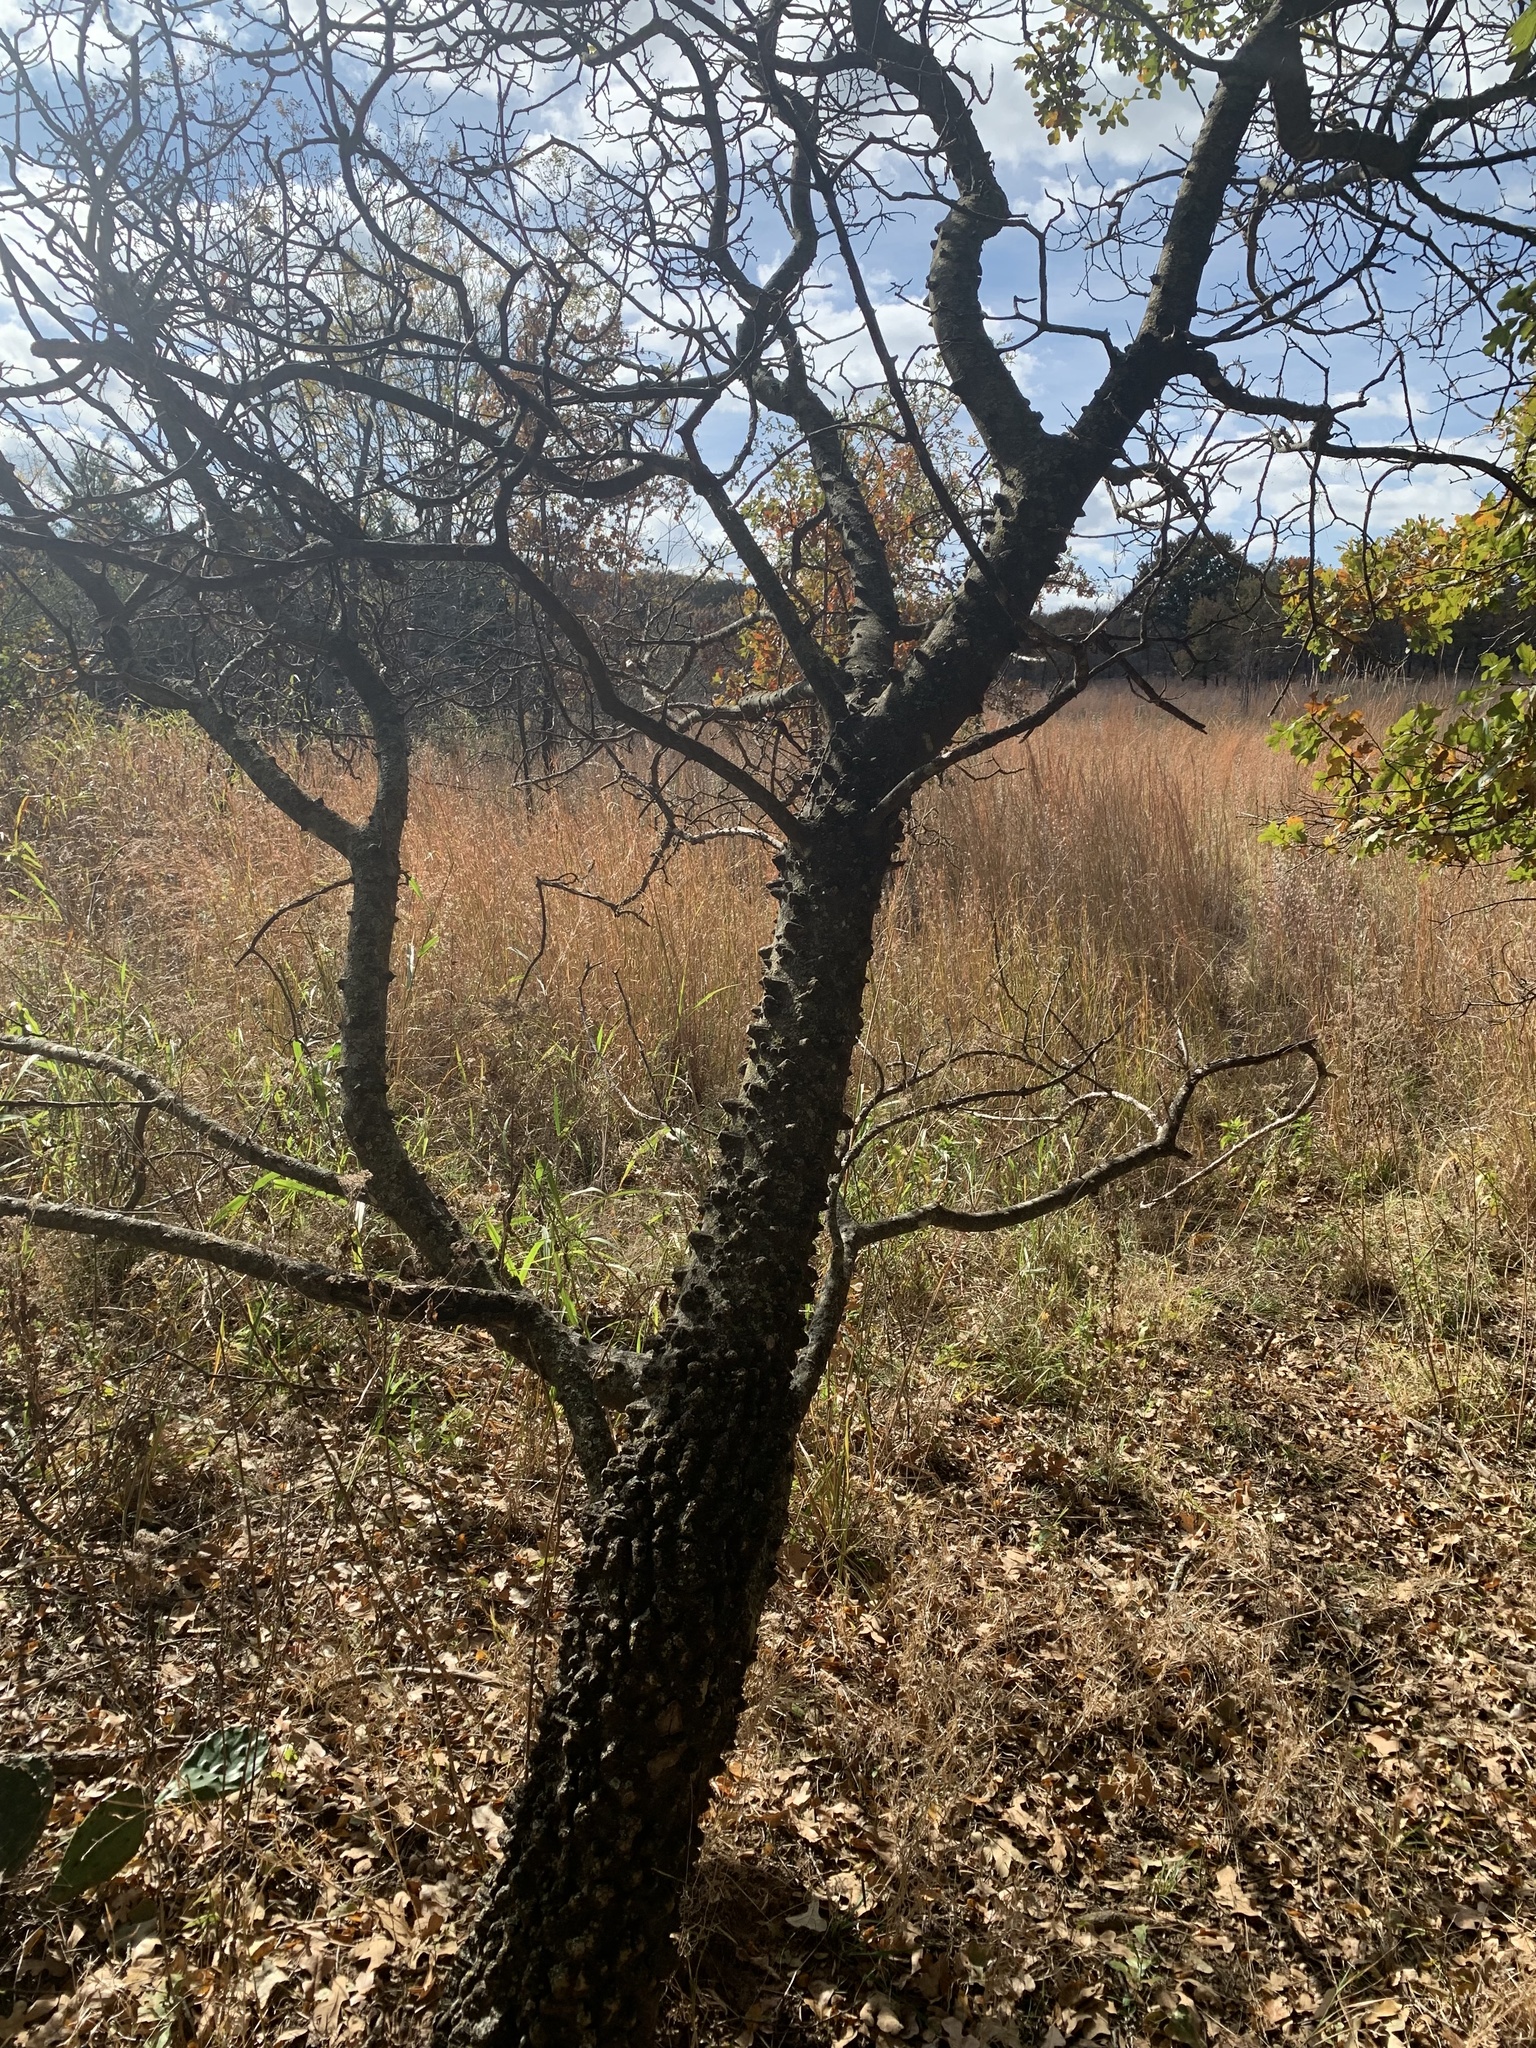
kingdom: Plantae
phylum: Tracheophyta
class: Magnoliopsida
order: Sapindales
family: Rutaceae
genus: Zanthoxylum
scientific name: Zanthoxylum clava-herculis
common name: Hercules'-club
